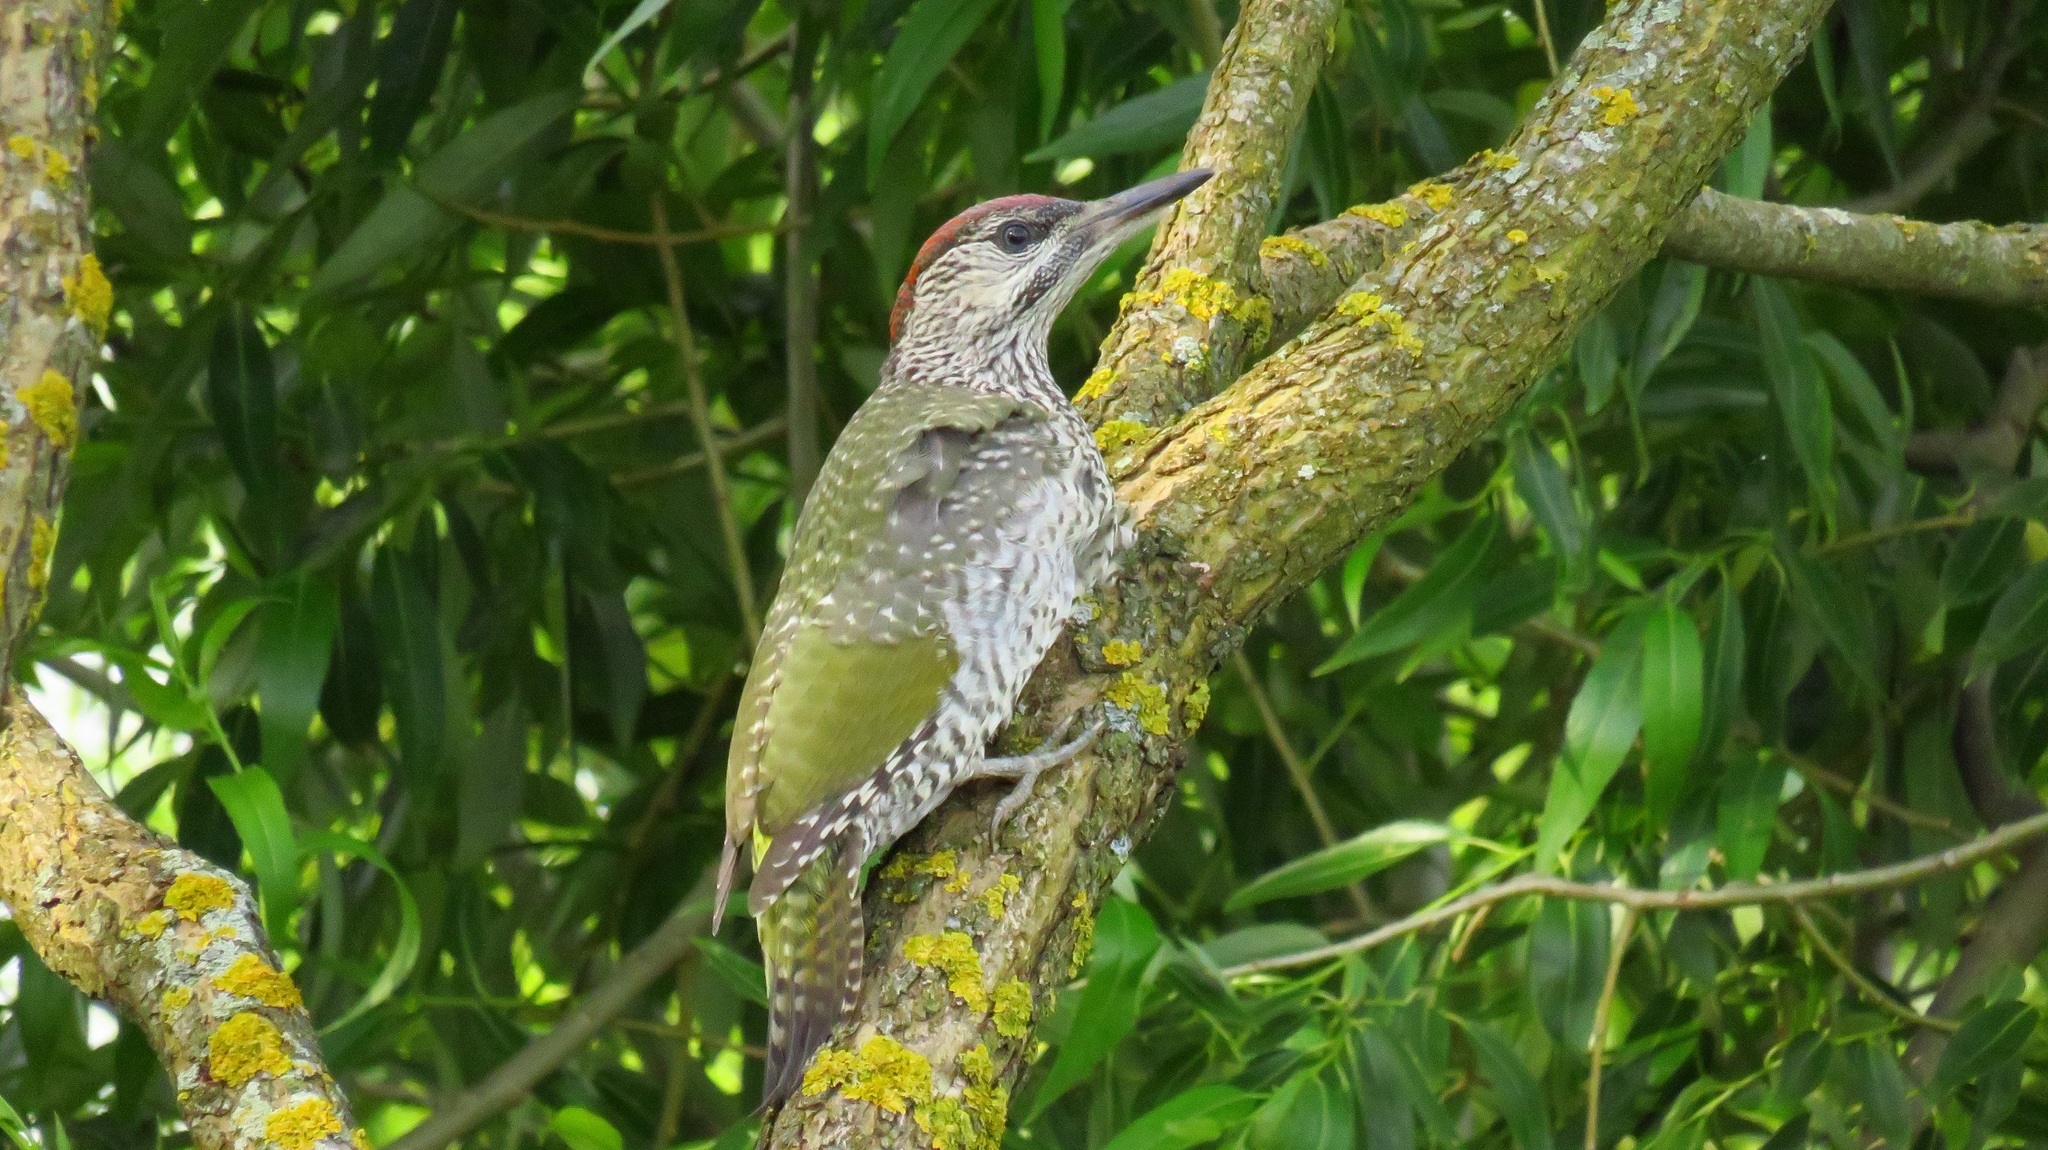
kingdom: Animalia
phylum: Chordata
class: Aves
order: Piciformes
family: Picidae
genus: Picus
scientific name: Picus viridis
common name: European green woodpecker
